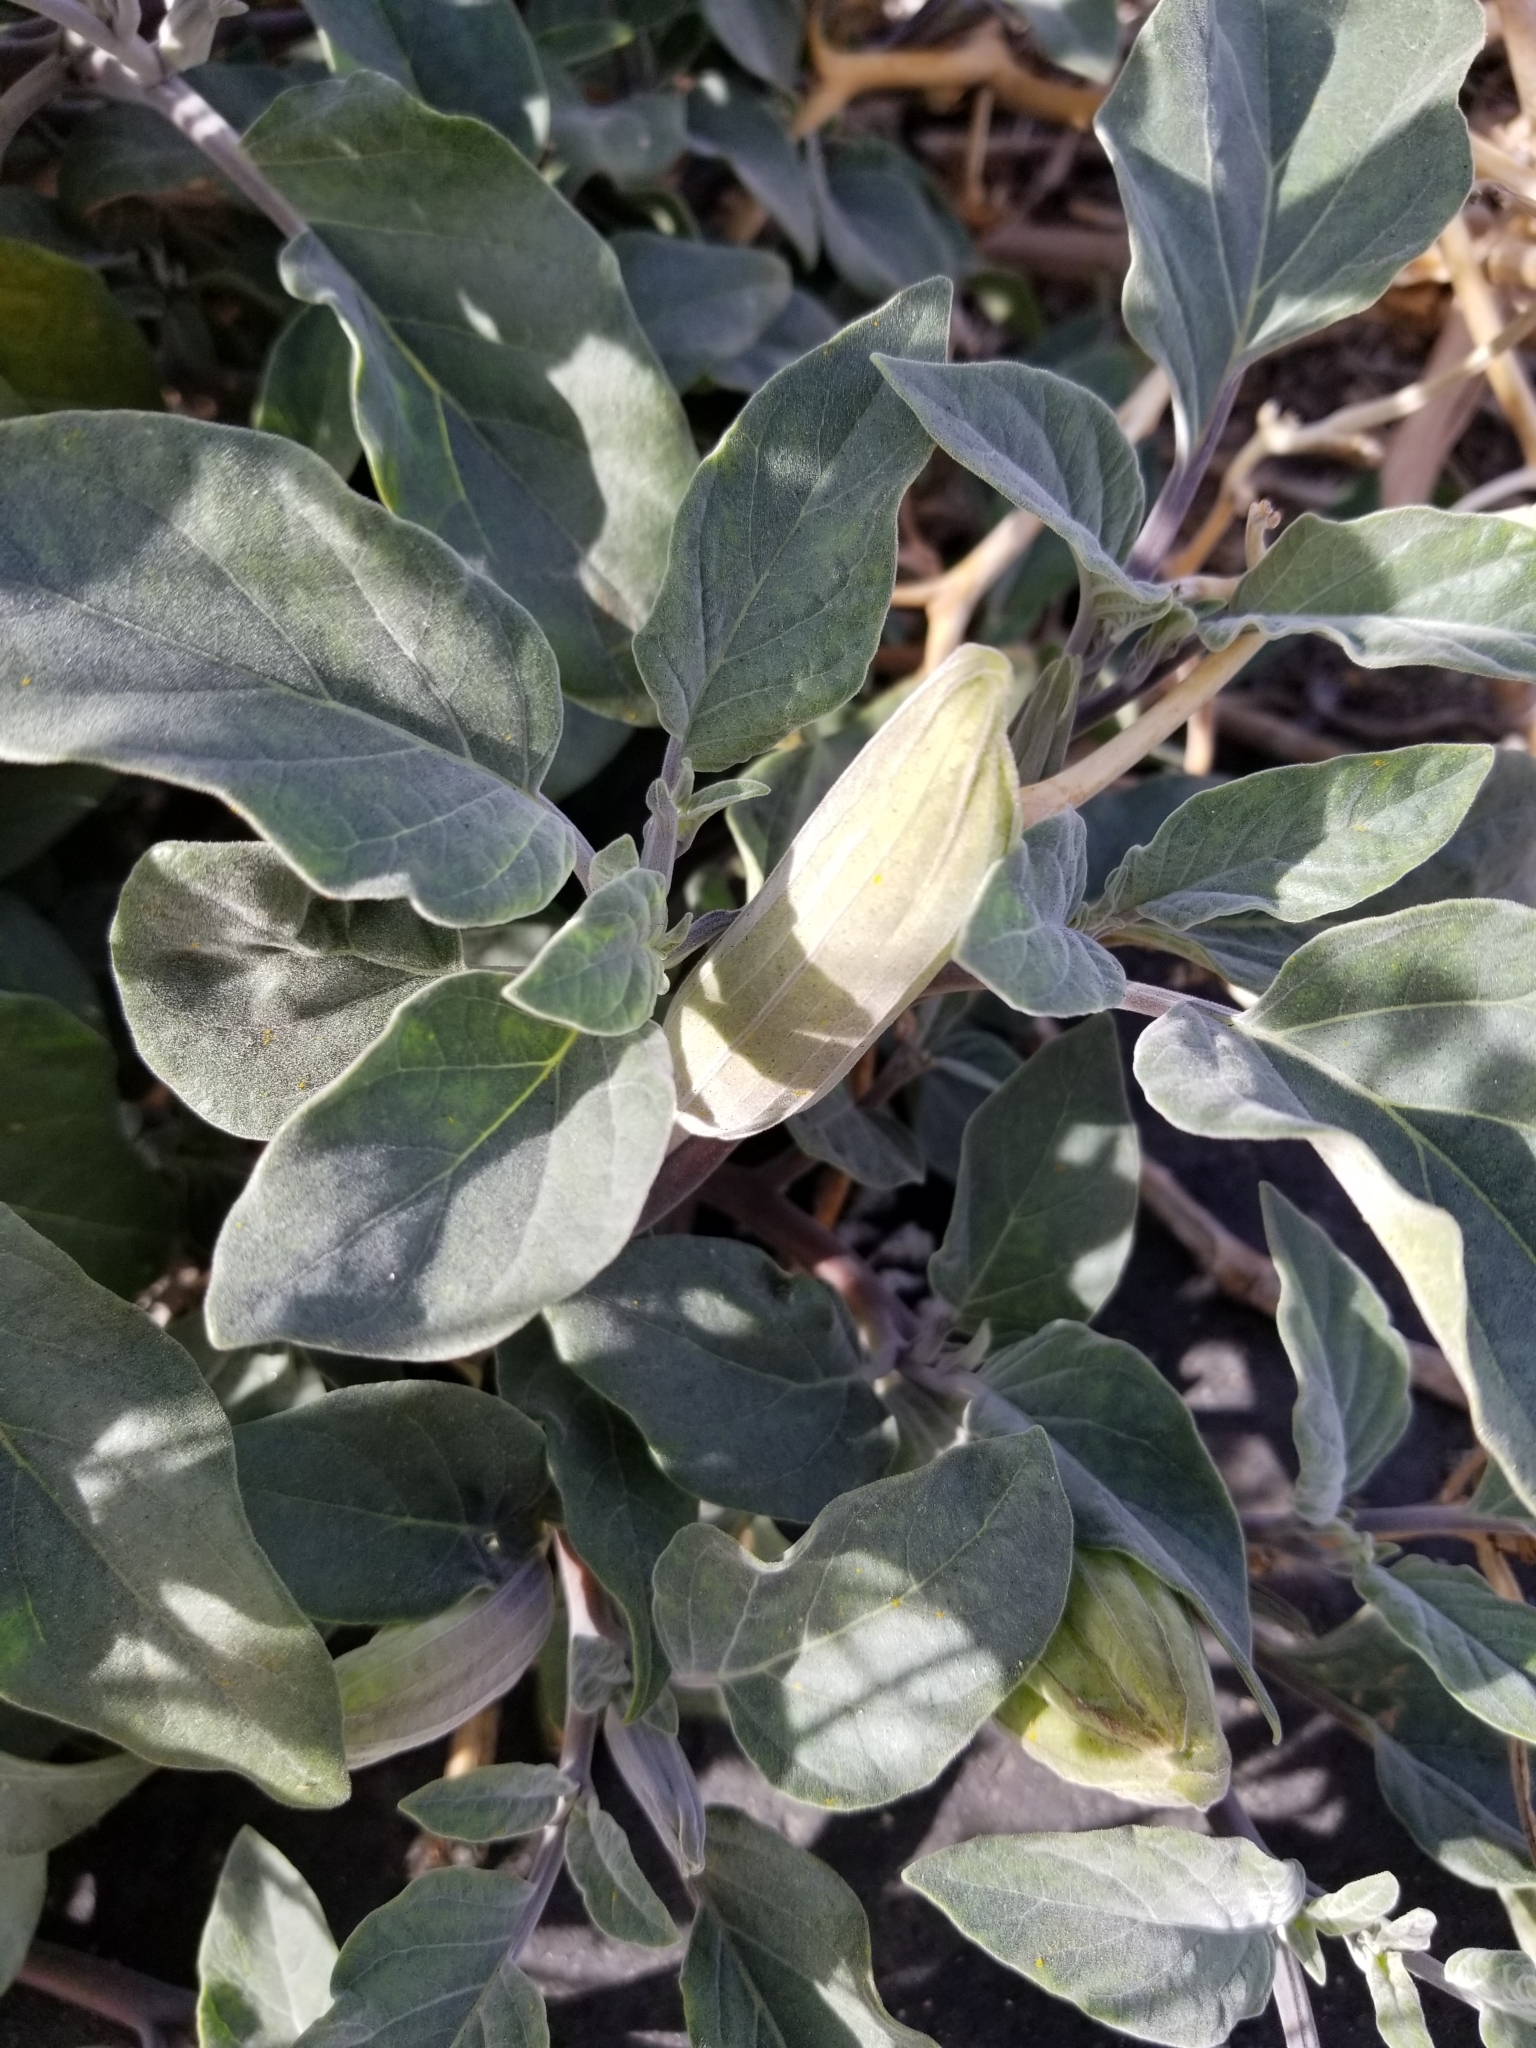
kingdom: Plantae
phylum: Tracheophyta
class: Magnoliopsida
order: Solanales
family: Solanaceae
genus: Datura
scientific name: Datura wrightii
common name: Sacred thorn-apple
